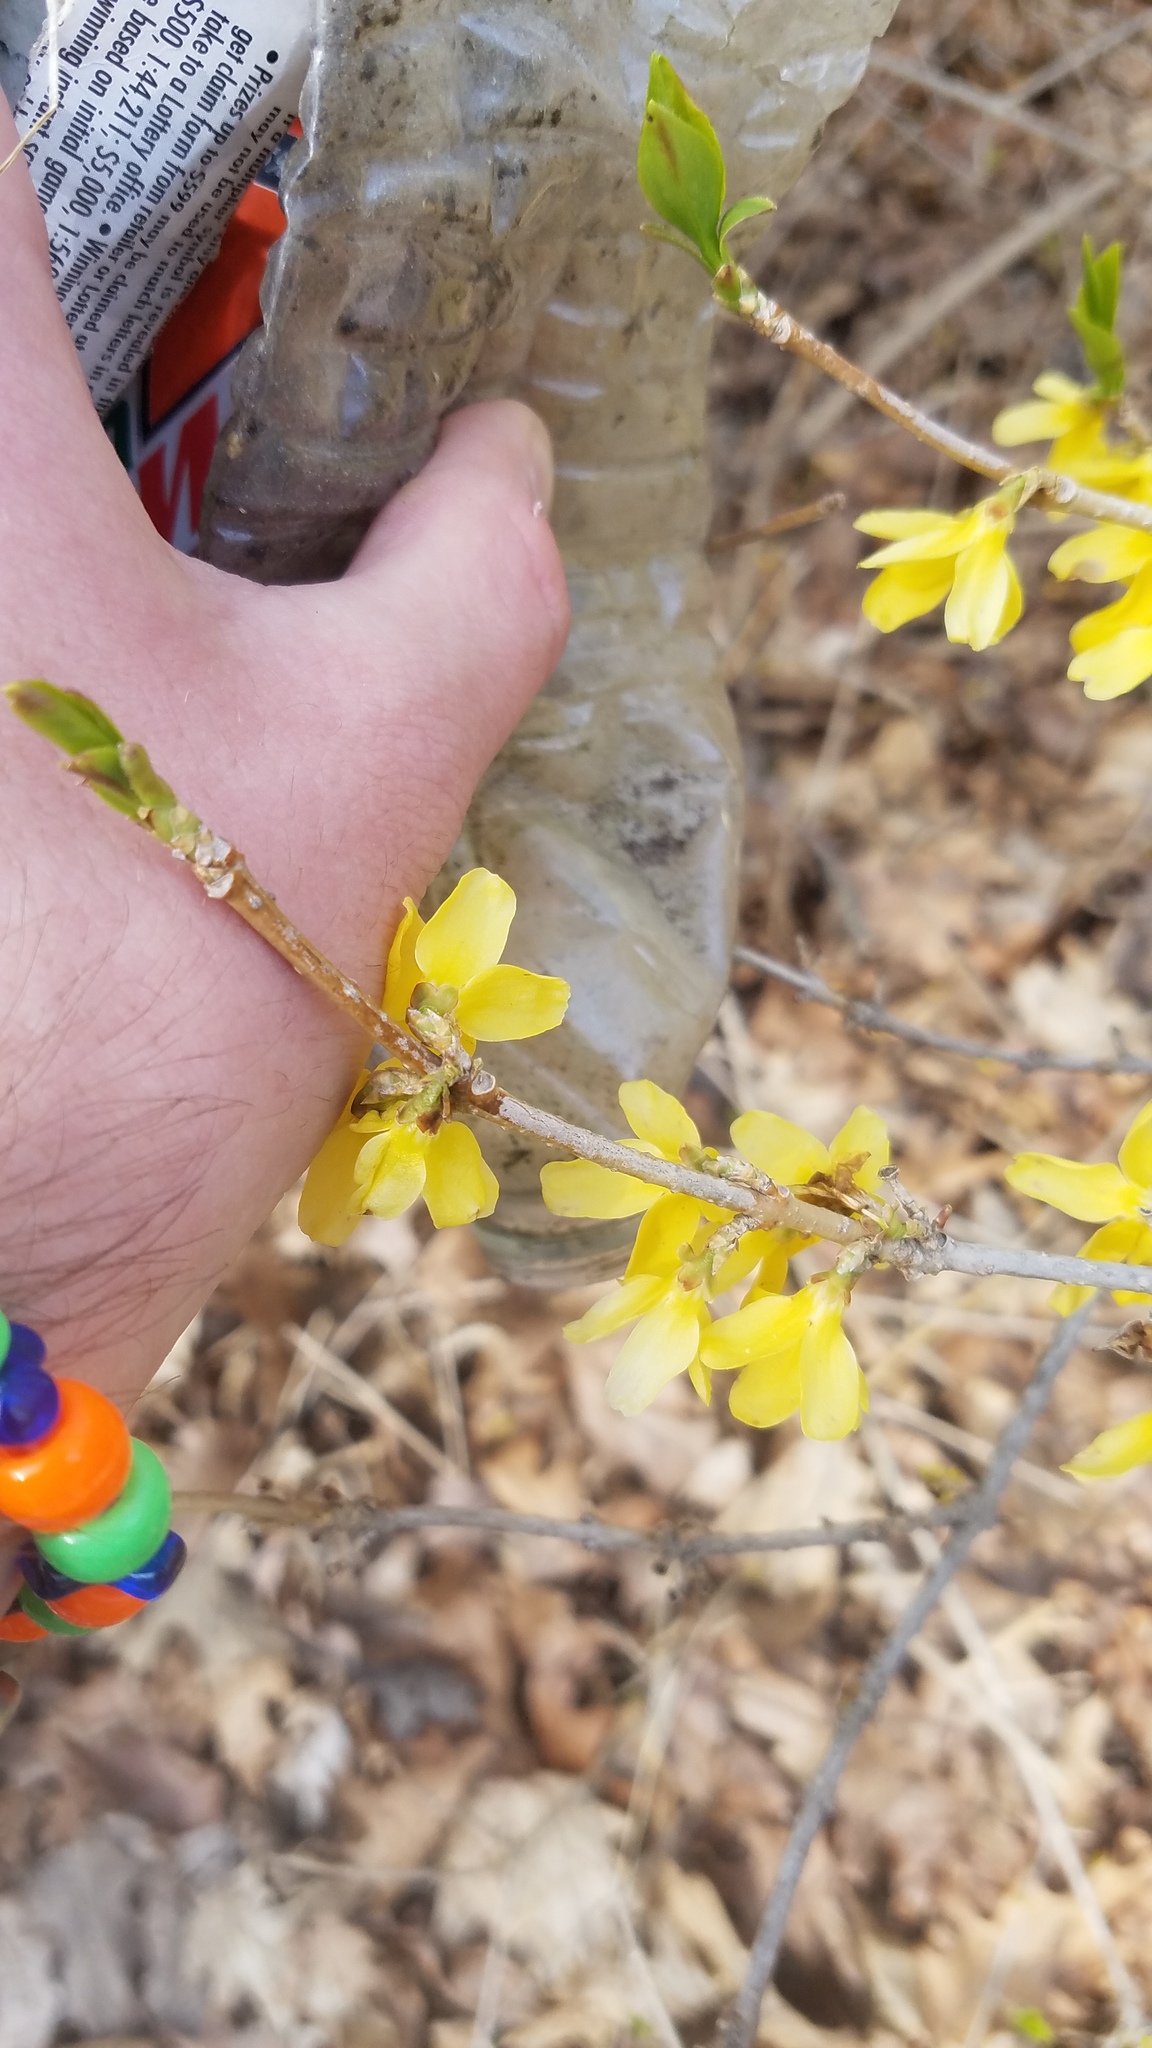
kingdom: Plantae
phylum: Tracheophyta
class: Magnoliopsida
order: Lamiales
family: Oleaceae
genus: Forsythia
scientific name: Forsythia intermedia
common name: Forsythia
